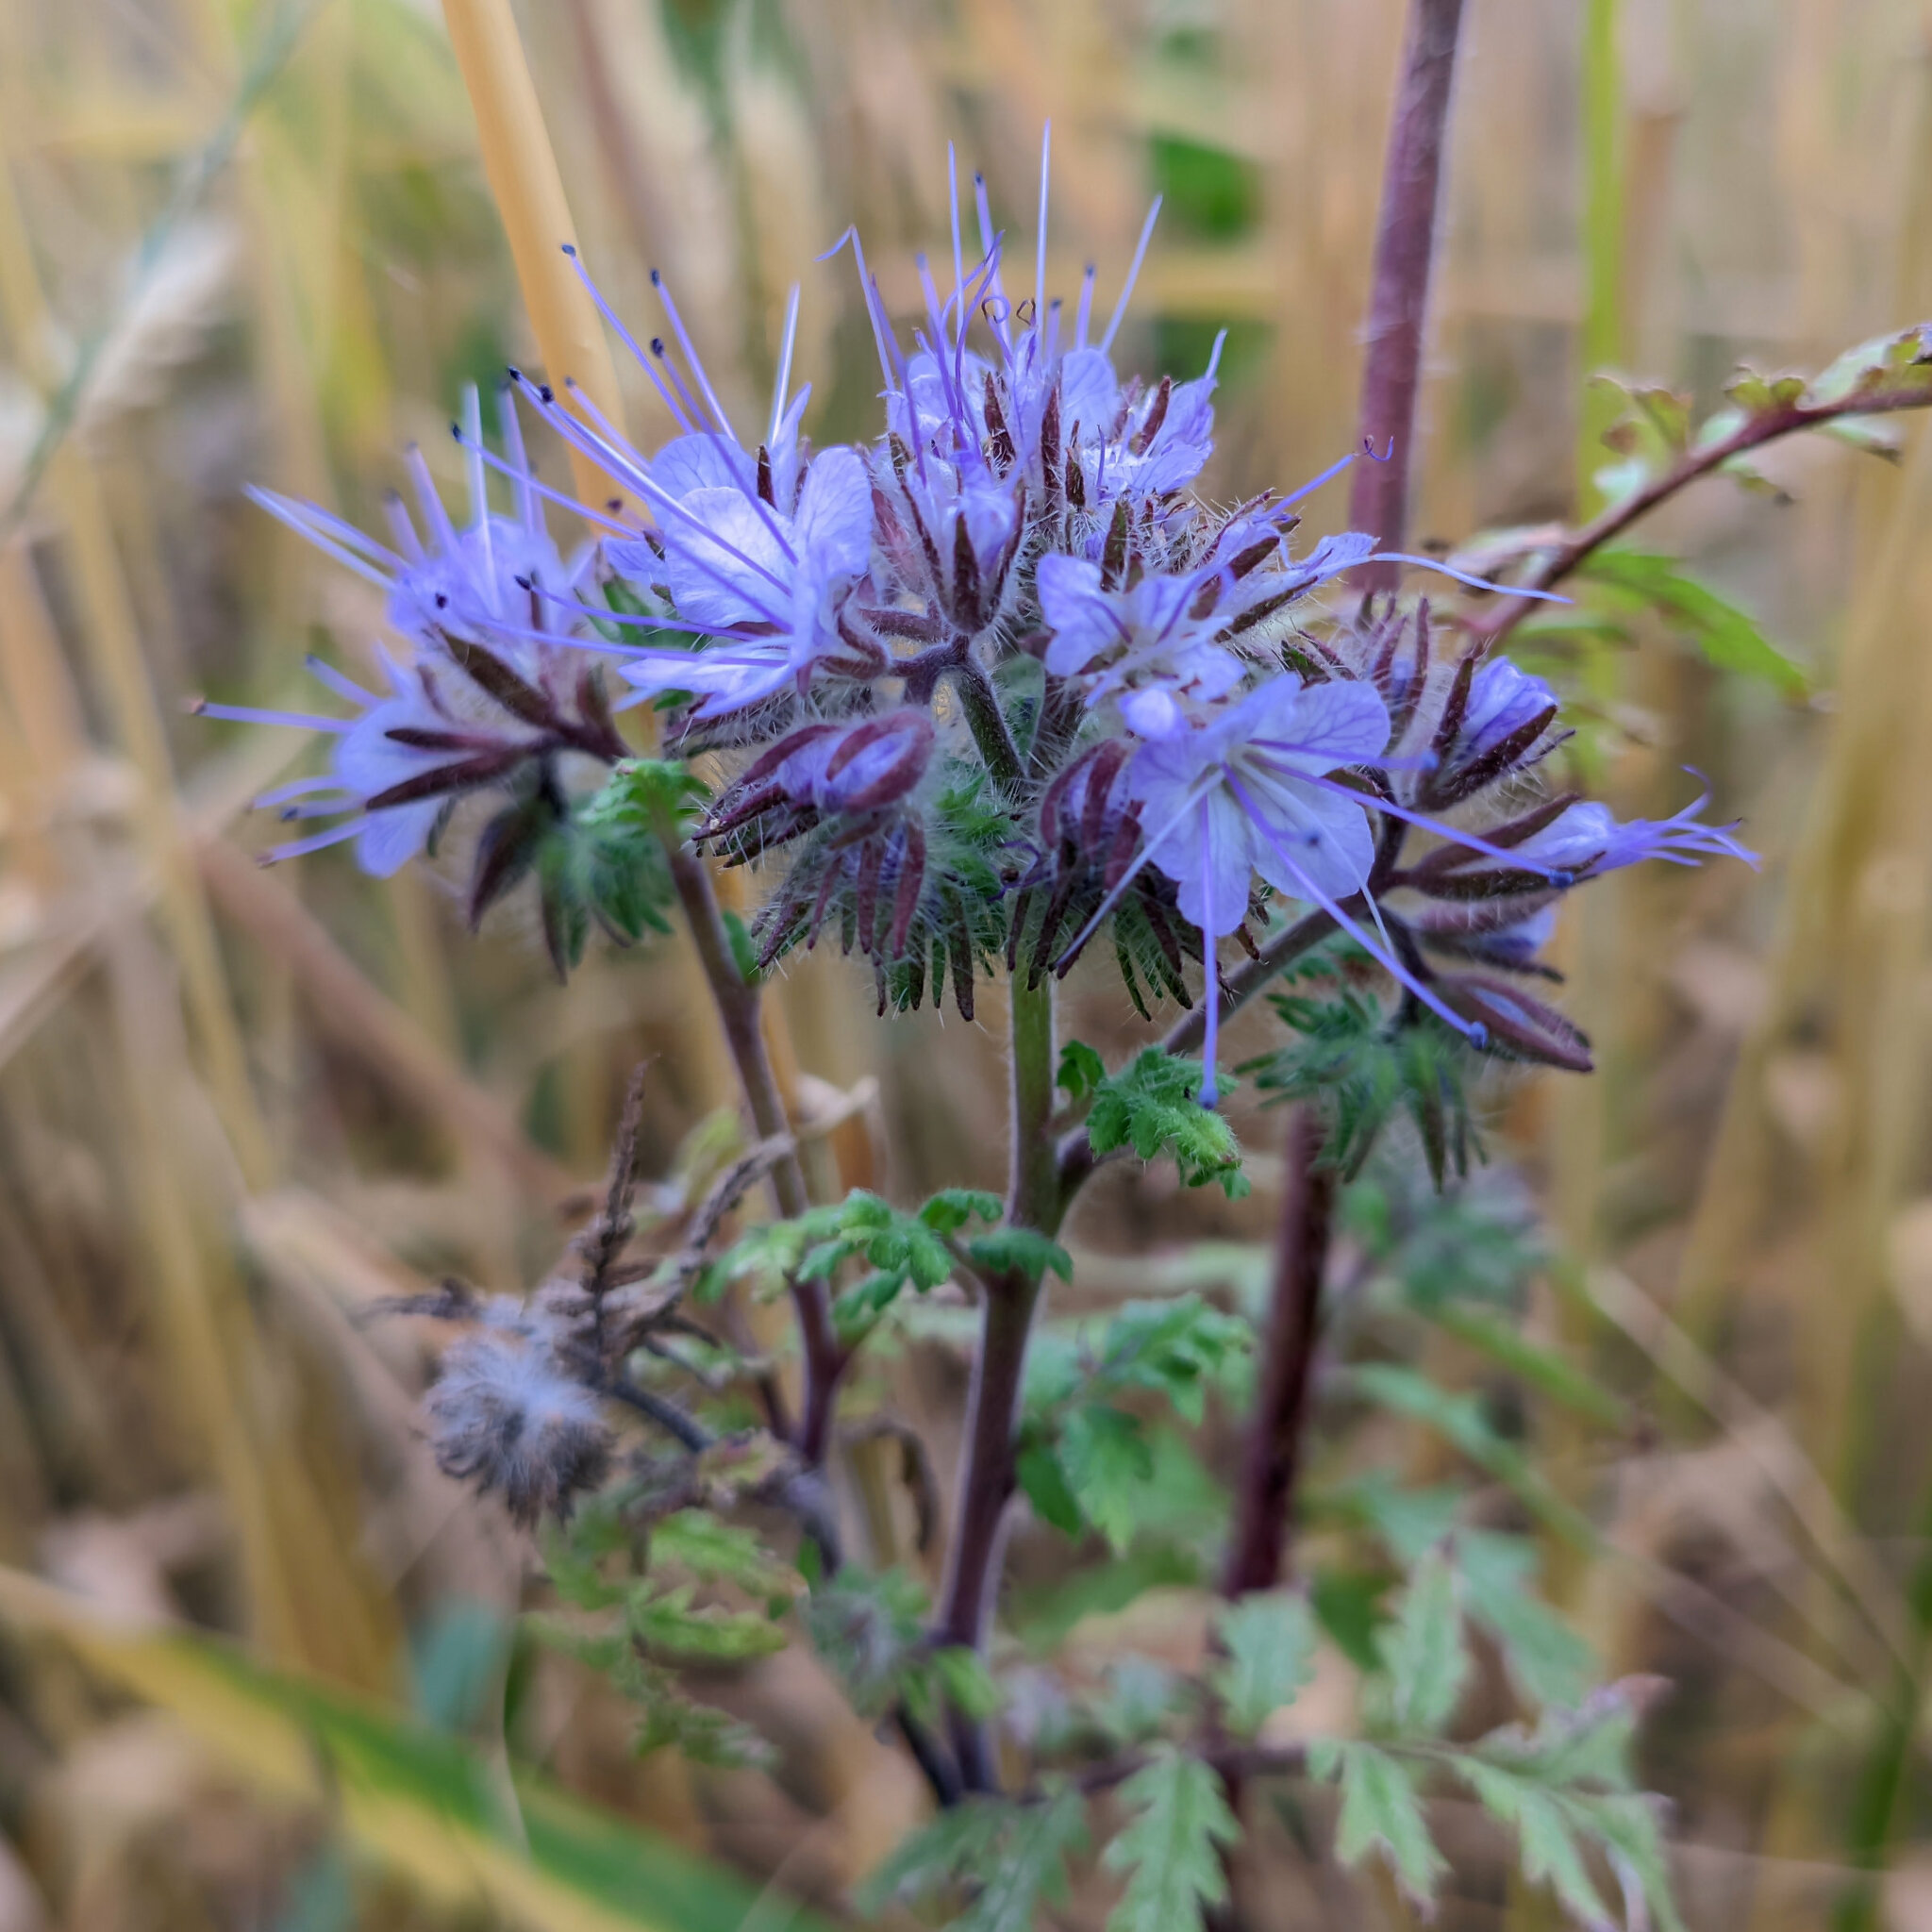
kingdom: Plantae
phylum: Tracheophyta
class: Magnoliopsida
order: Boraginales
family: Hydrophyllaceae
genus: Phacelia
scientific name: Phacelia tanacetifolia
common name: Phacelia
